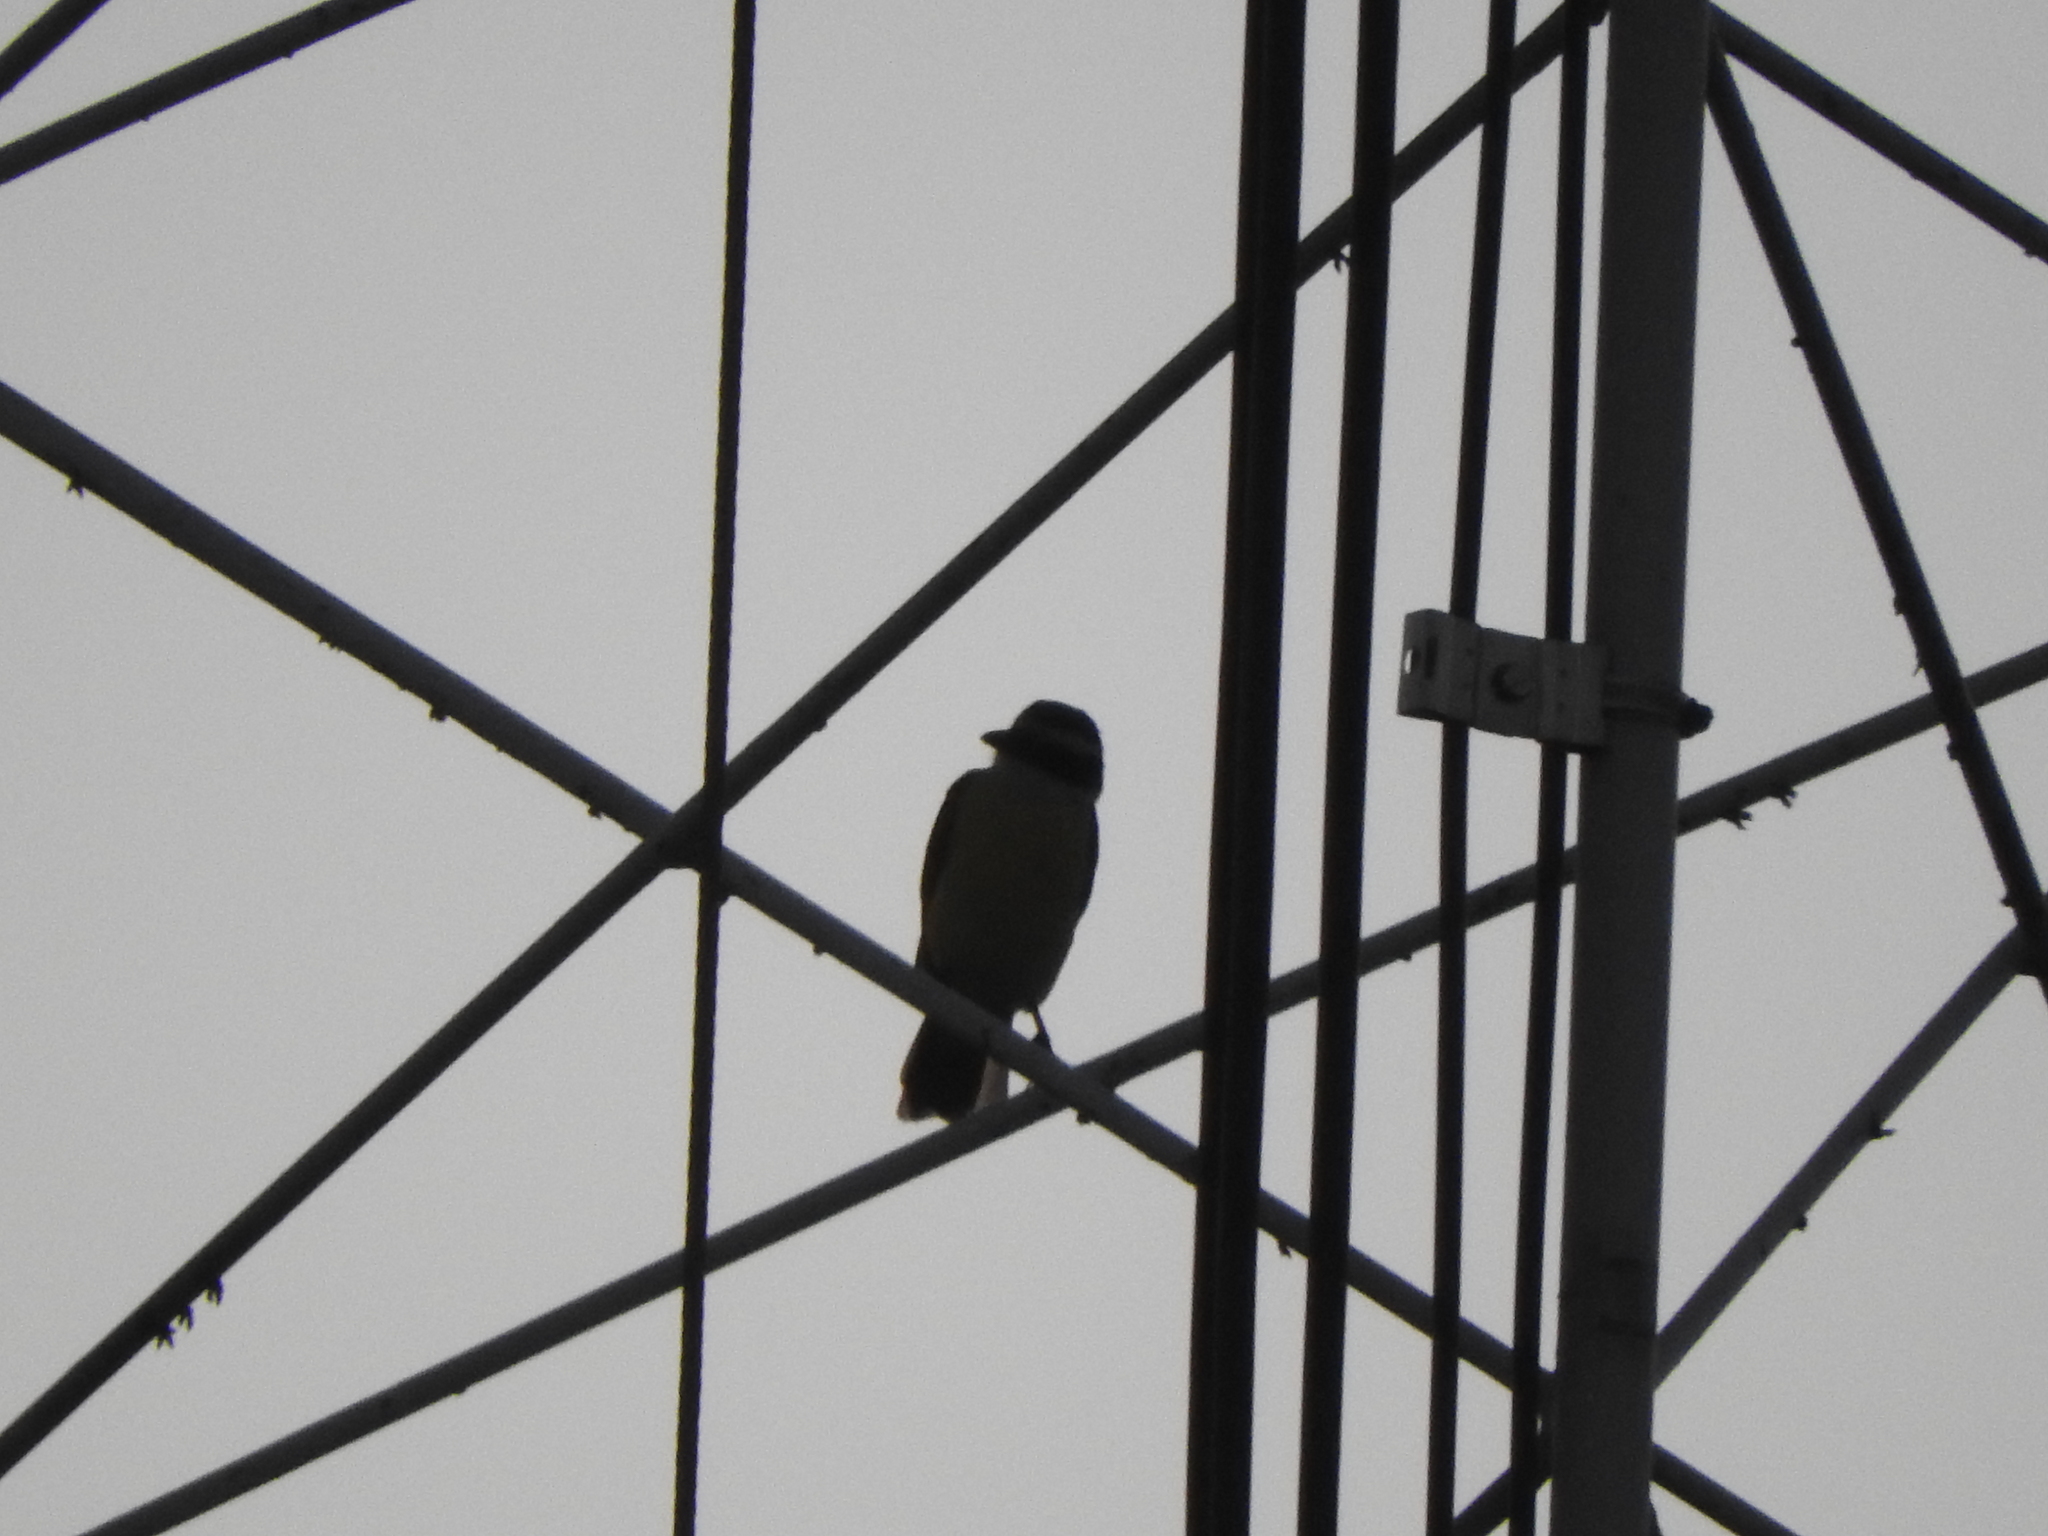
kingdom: Animalia
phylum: Chordata
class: Aves
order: Passeriformes
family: Tyrannidae
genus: Pitangus
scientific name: Pitangus sulphuratus
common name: Great kiskadee
